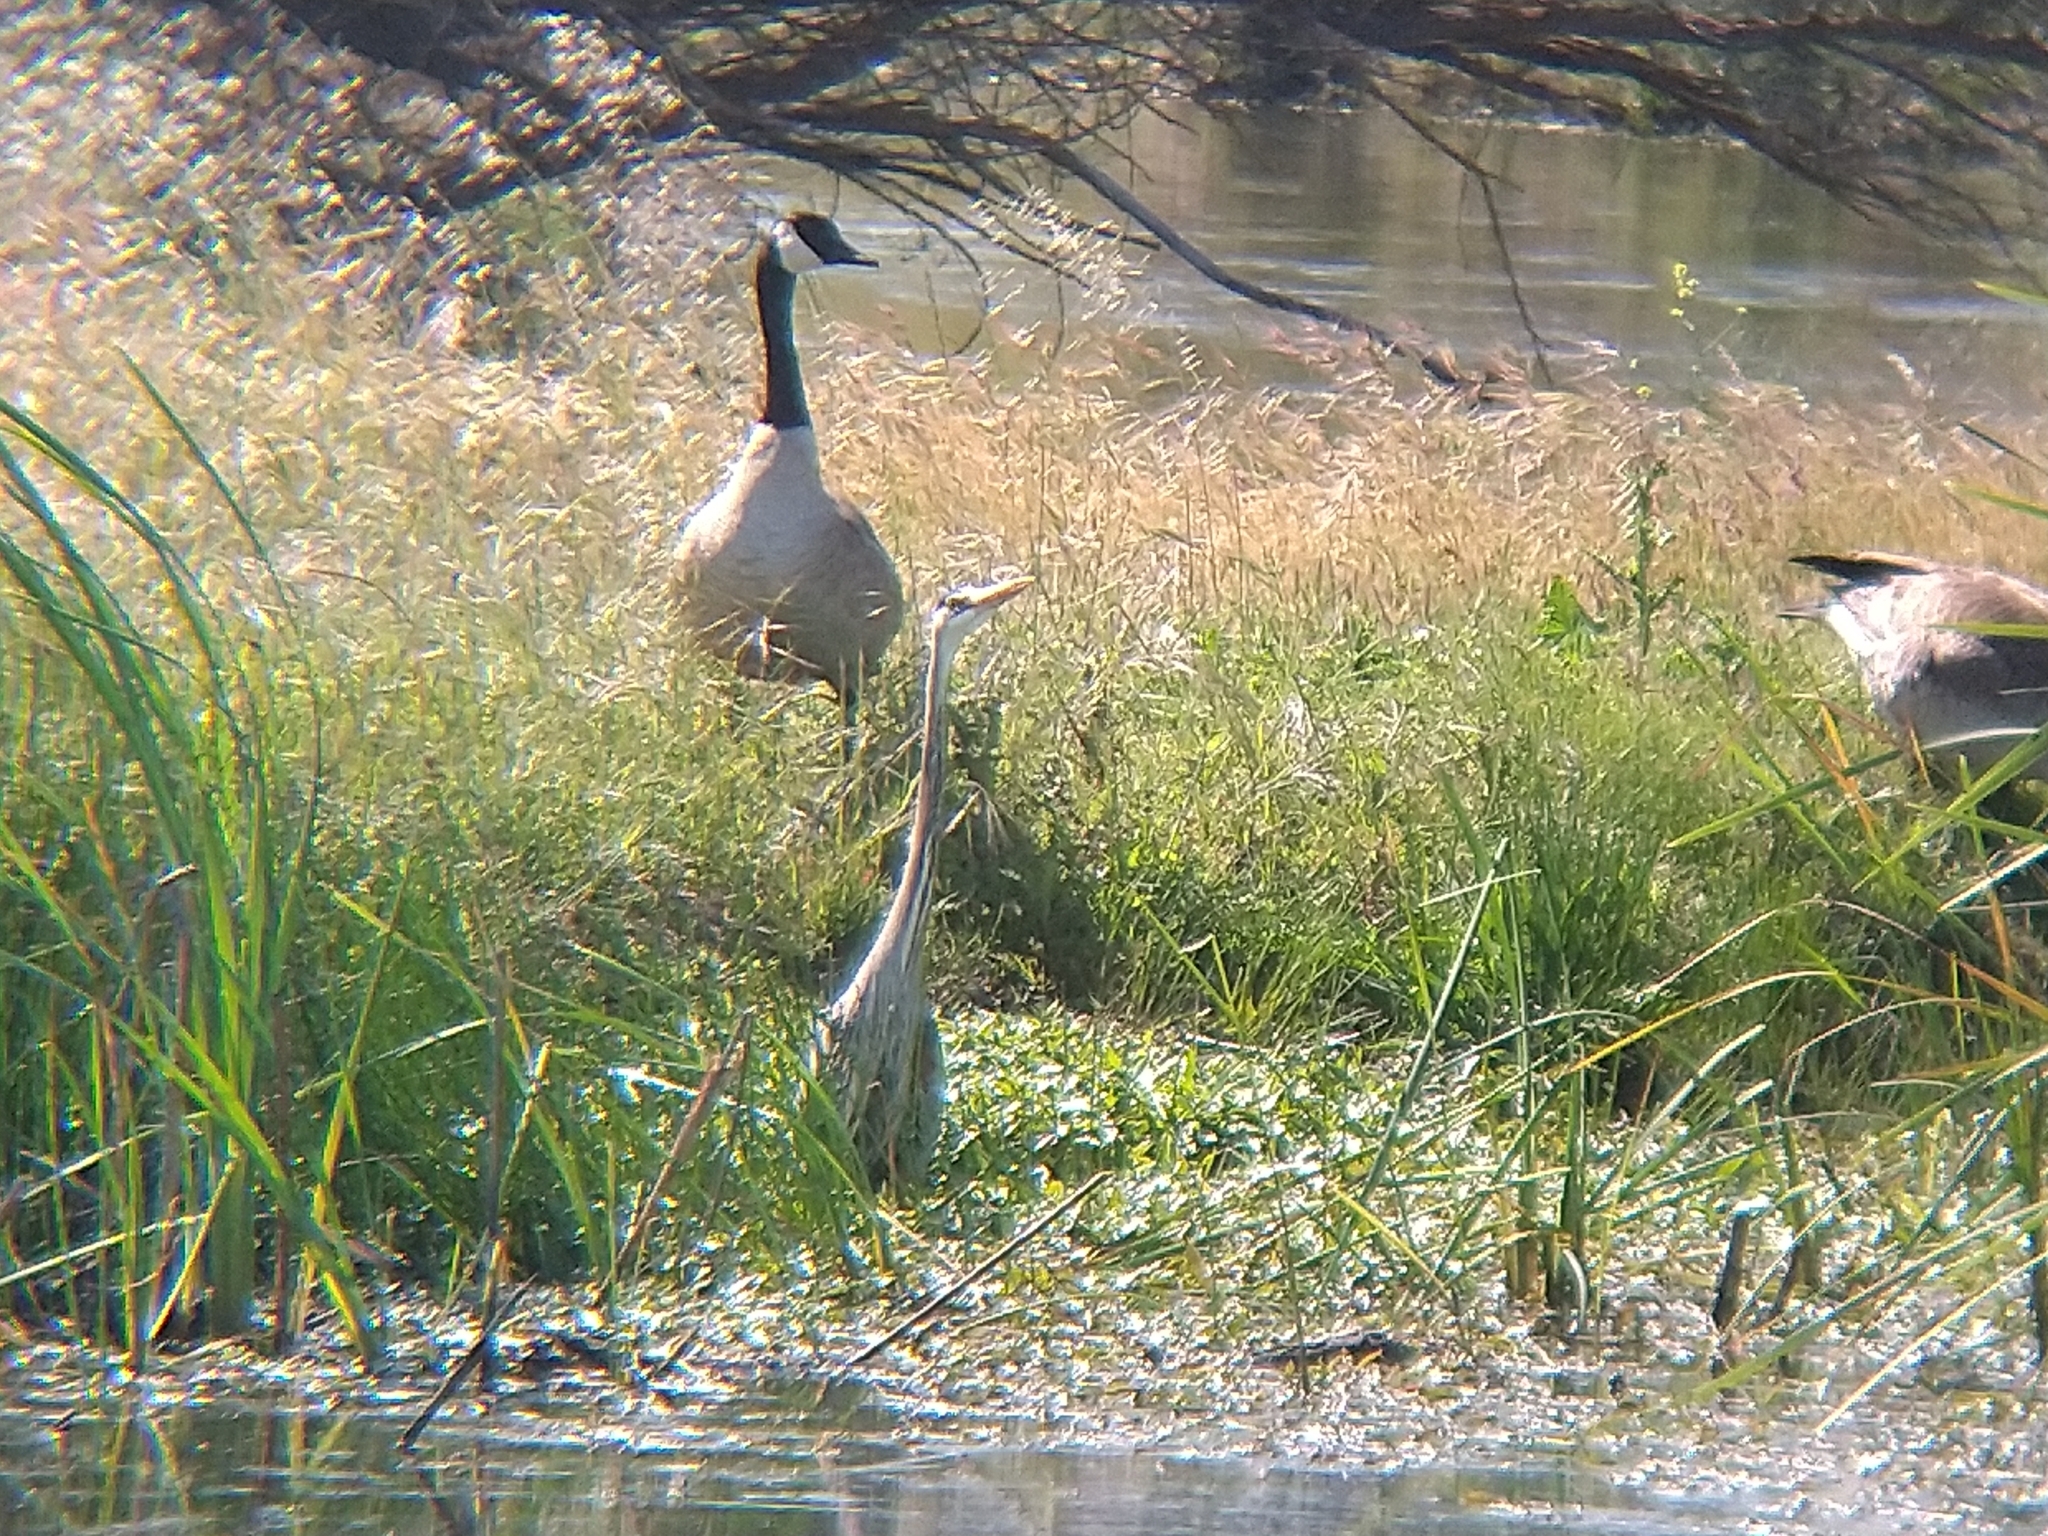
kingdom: Animalia
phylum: Chordata
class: Aves
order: Pelecaniformes
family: Ardeidae
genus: Ardea
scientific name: Ardea herodias
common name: Great blue heron
